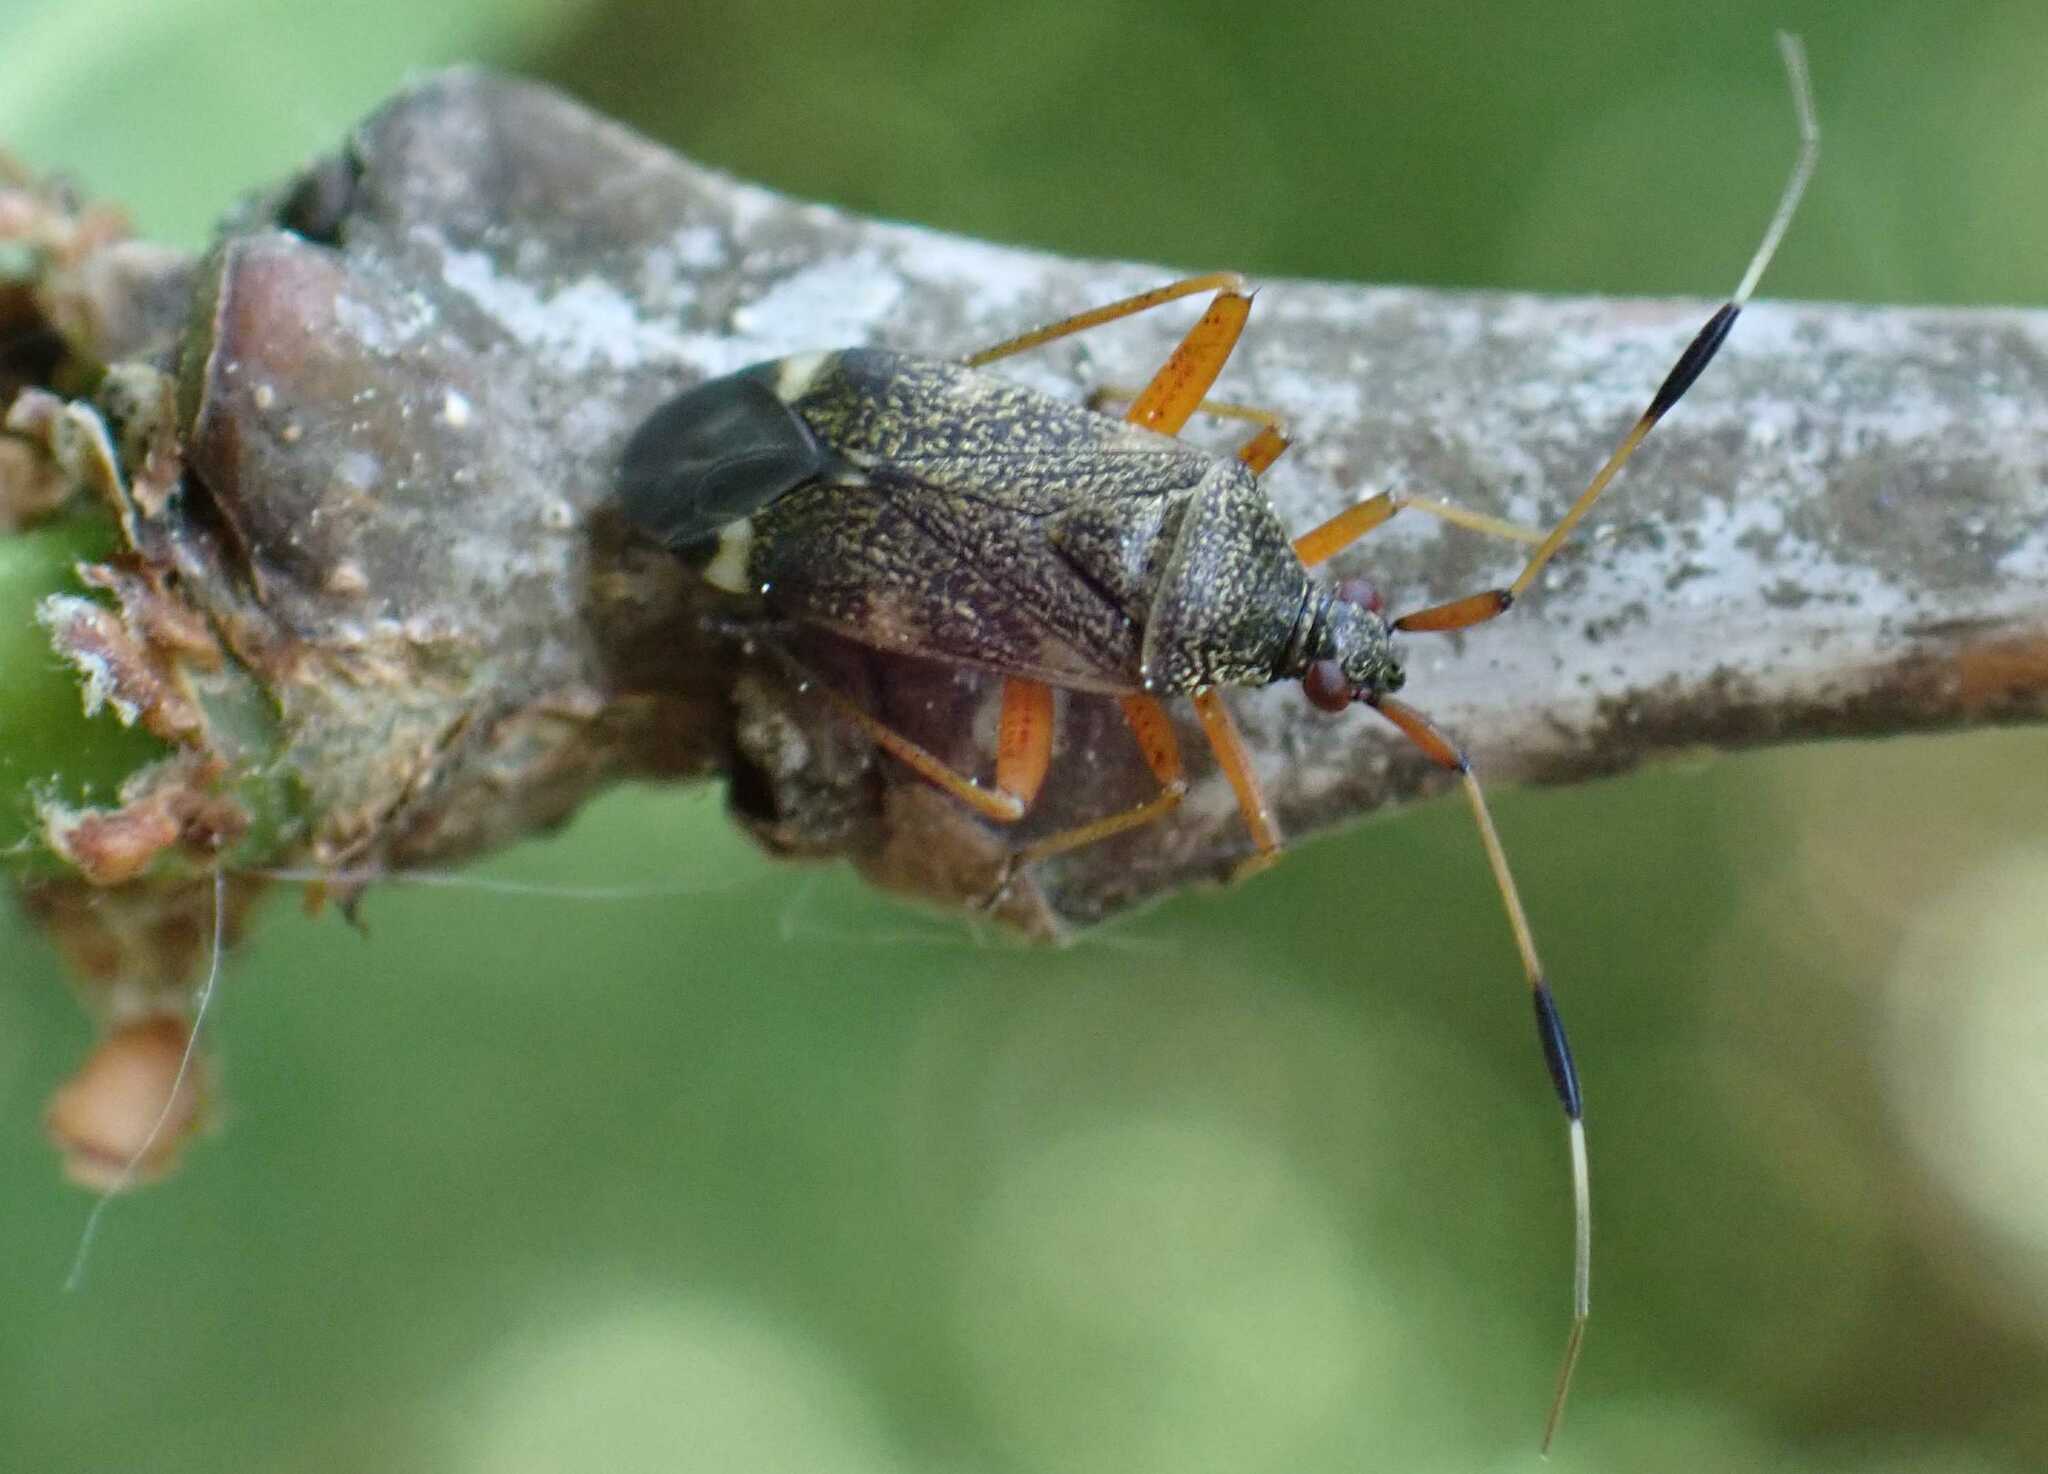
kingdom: Animalia
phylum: Arthropoda
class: Insecta
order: Hemiptera
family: Miridae
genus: Closterotomus
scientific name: Closterotomus biclavatus
